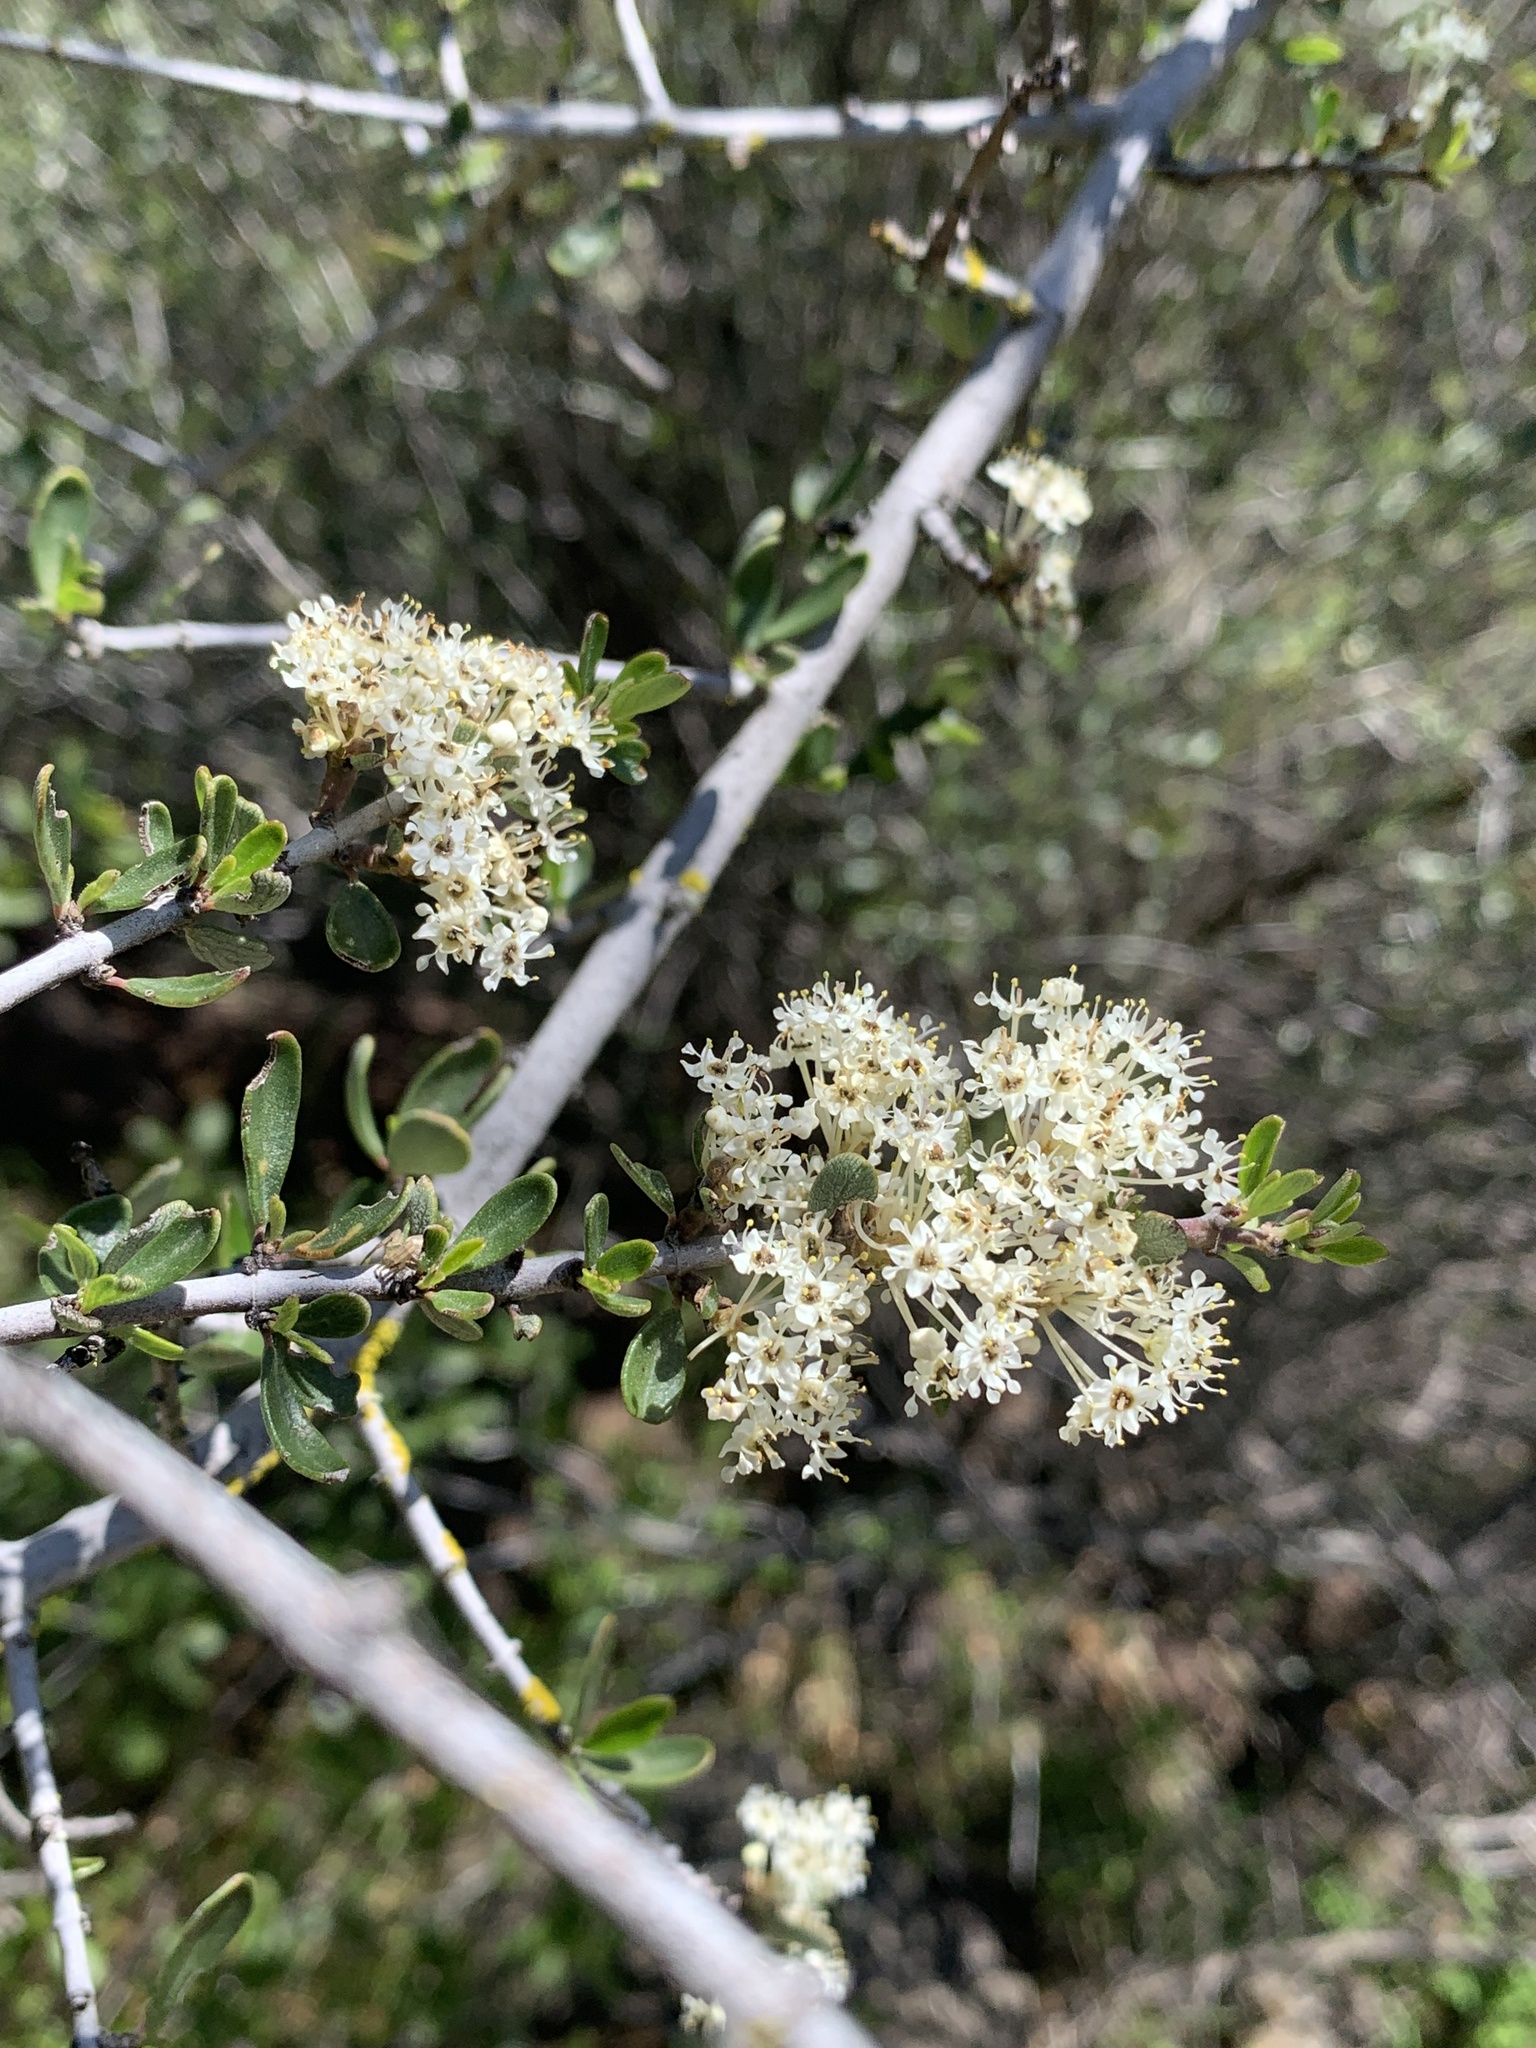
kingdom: Plantae
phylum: Tracheophyta
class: Magnoliopsida
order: Rosales
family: Rhamnaceae
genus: Ceanothus
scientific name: Ceanothus cuneatus
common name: Cuneate ceanothus
